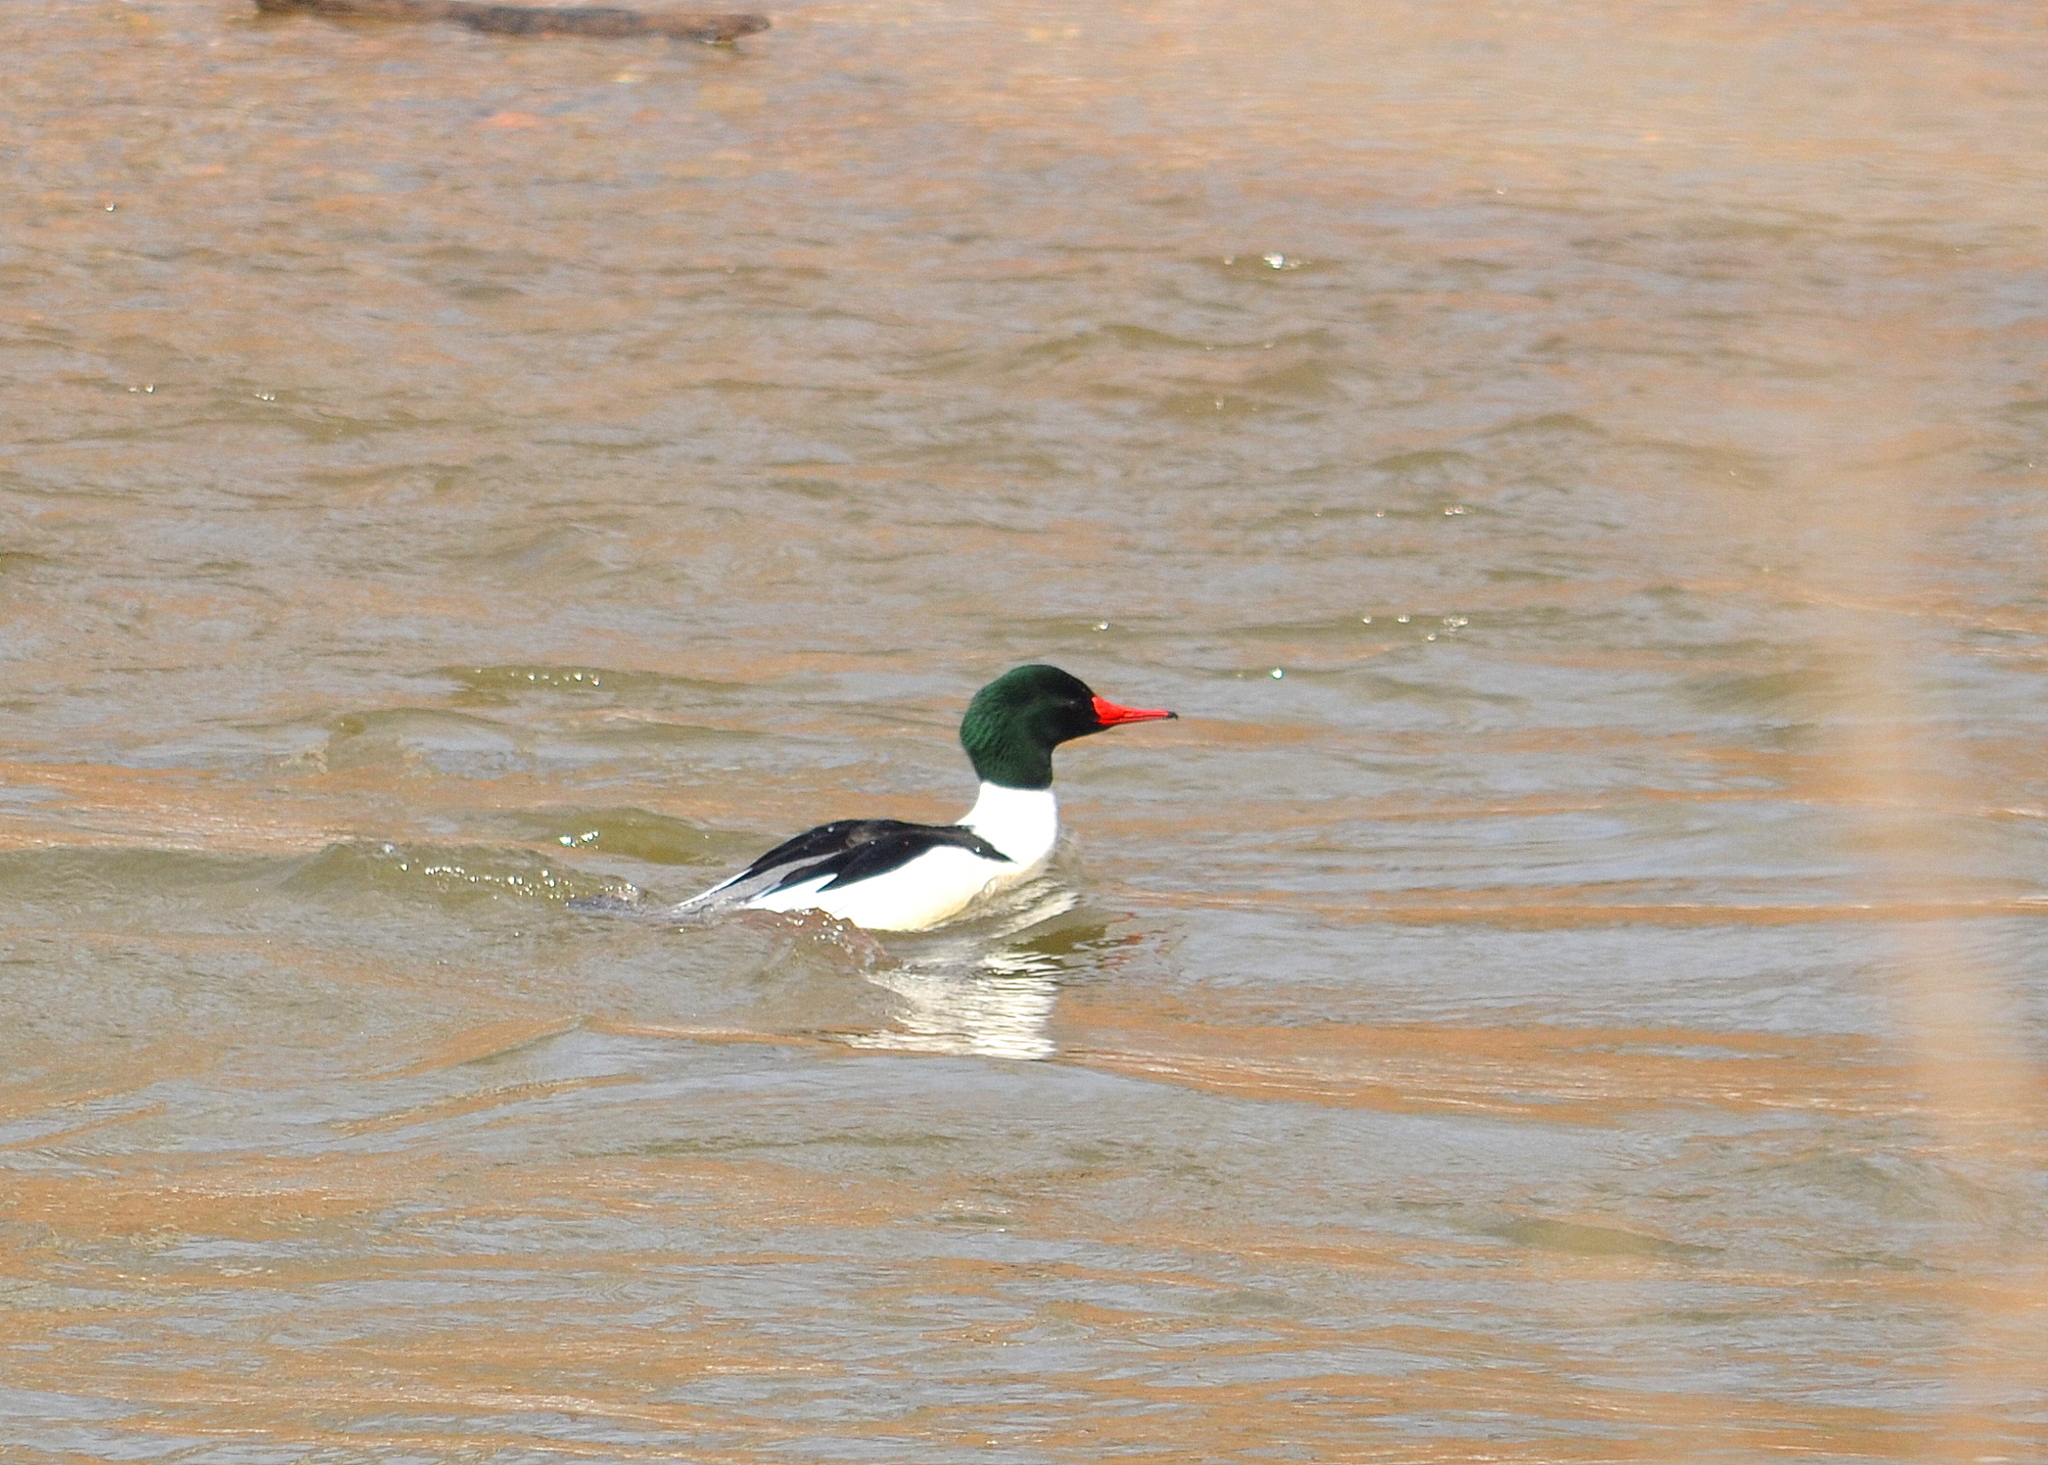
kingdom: Animalia
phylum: Chordata
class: Aves
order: Anseriformes
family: Anatidae
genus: Mergus
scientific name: Mergus merganser
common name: Common merganser
